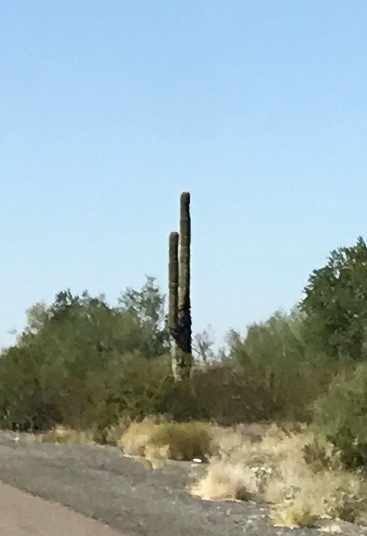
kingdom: Plantae
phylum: Tracheophyta
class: Magnoliopsida
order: Caryophyllales
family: Cactaceae
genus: Carnegiea
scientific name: Carnegiea gigantea
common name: Saguaro
